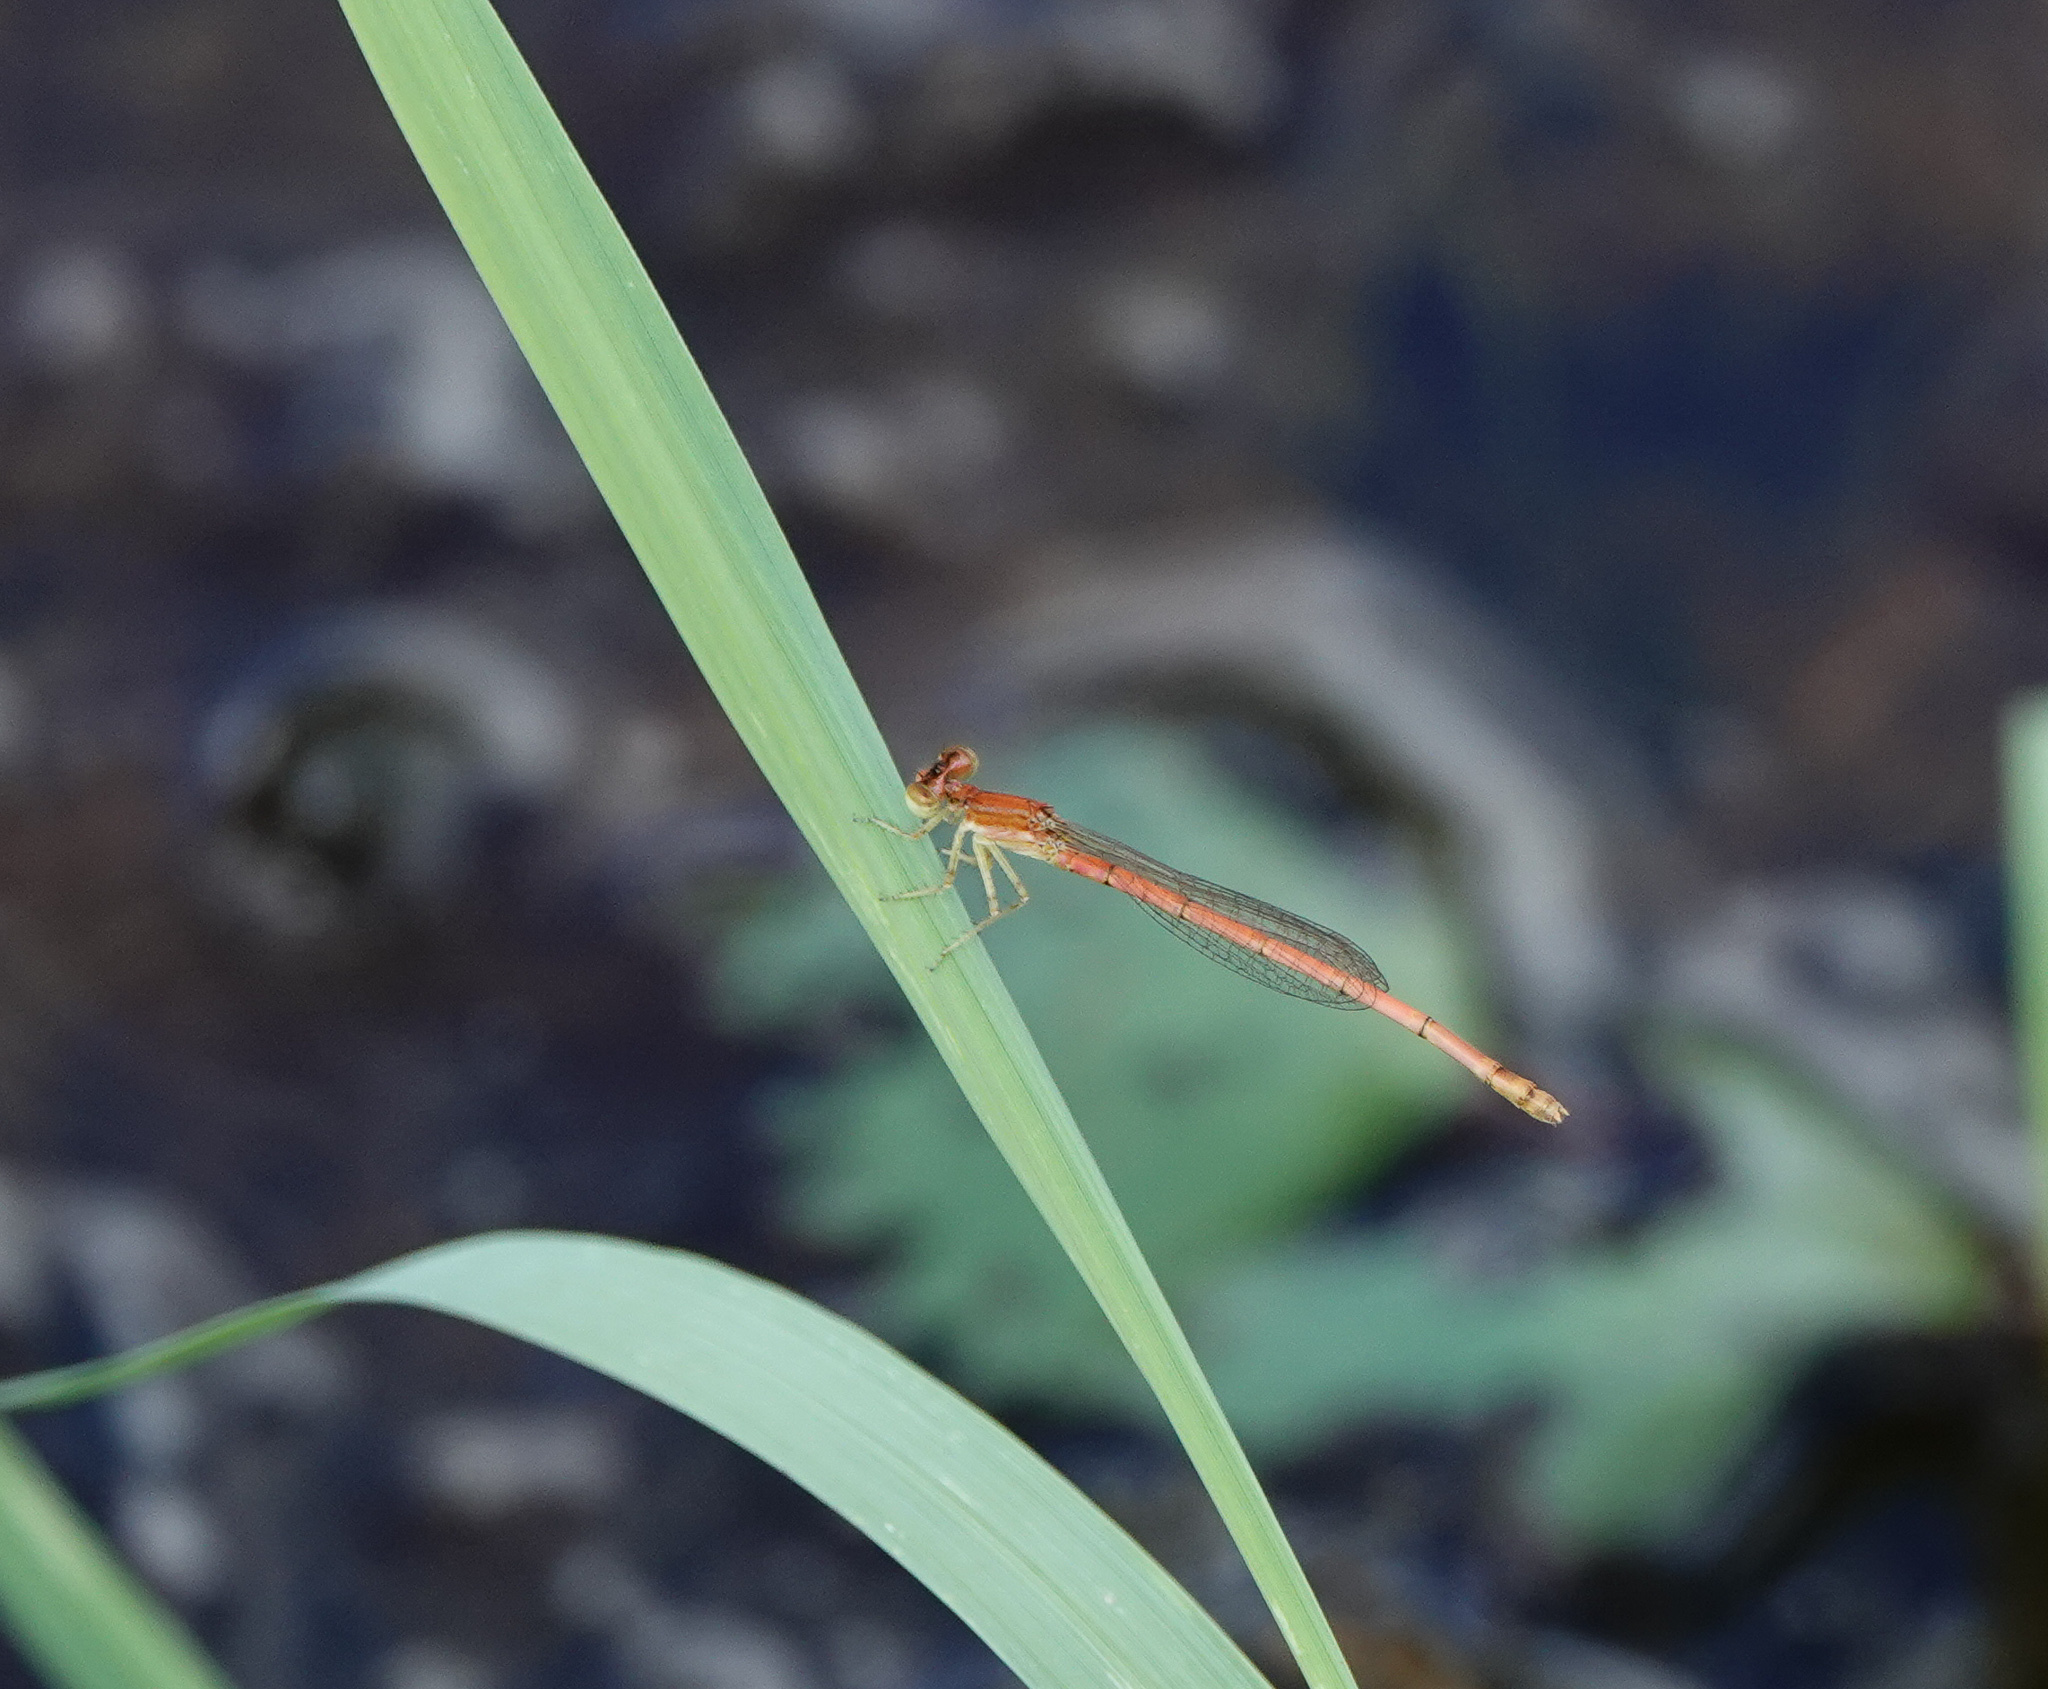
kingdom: Animalia
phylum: Arthropoda
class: Insecta
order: Odonata
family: Coenagrionidae
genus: Agriocnemis
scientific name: Agriocnemis pygmaea
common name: Pygmy wisp
